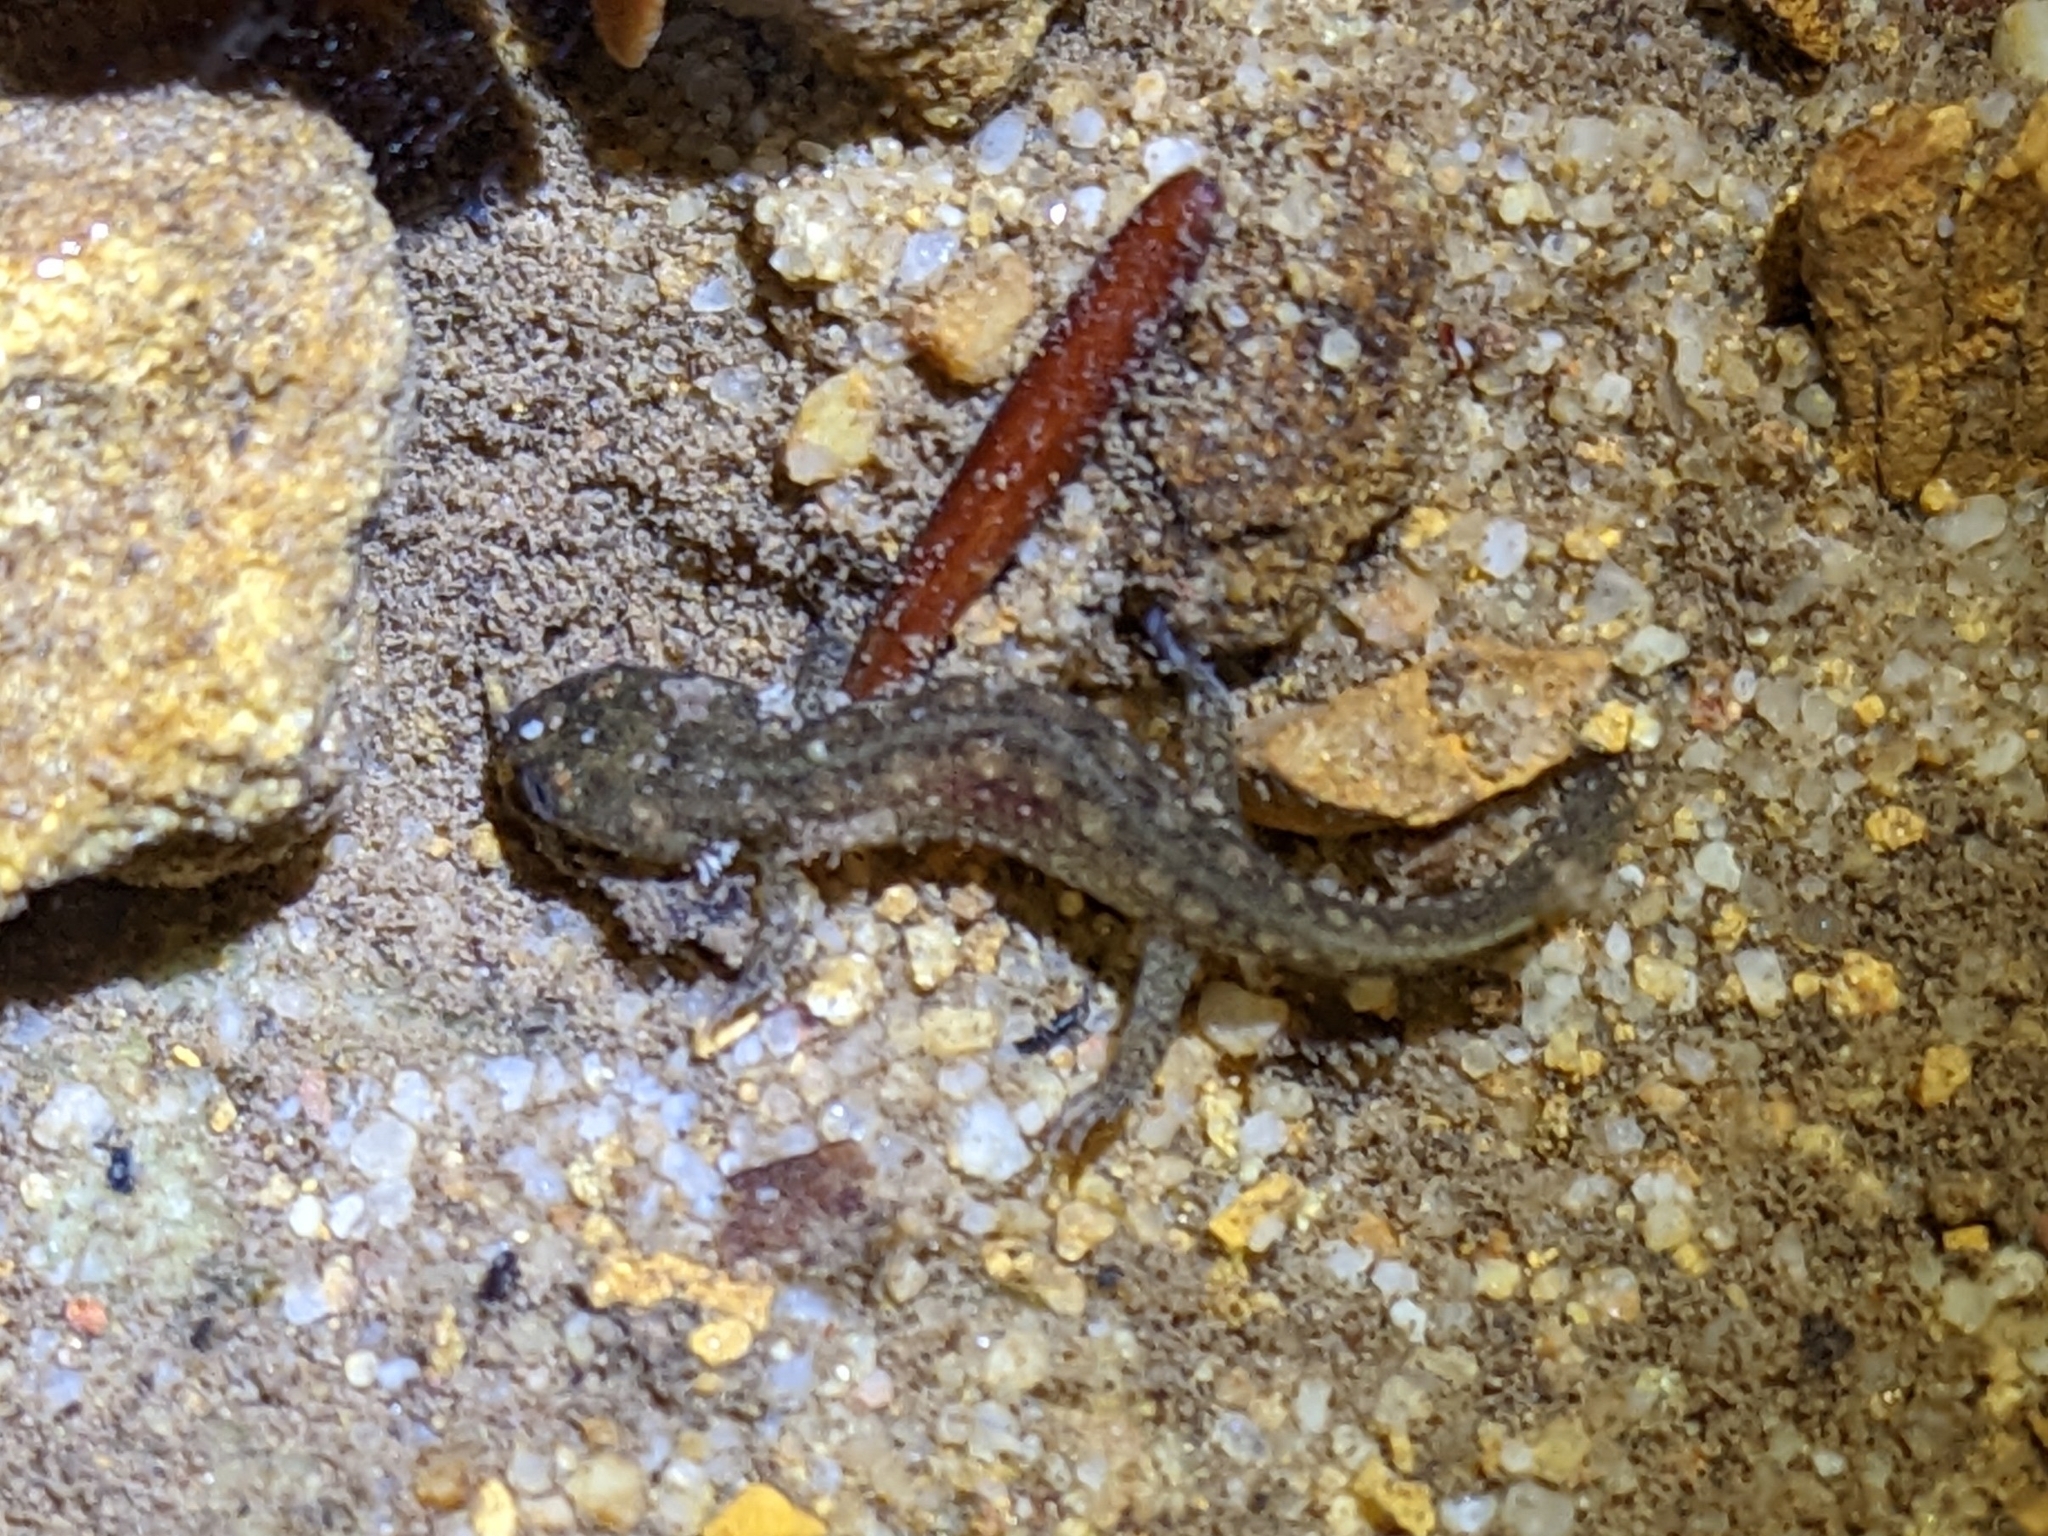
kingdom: Animalia
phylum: Chordata
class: Amphibia
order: Caudata
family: Plethodontidae
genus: Desmognathus
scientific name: Desmognathus fuscus
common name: Northern dusky salamander
